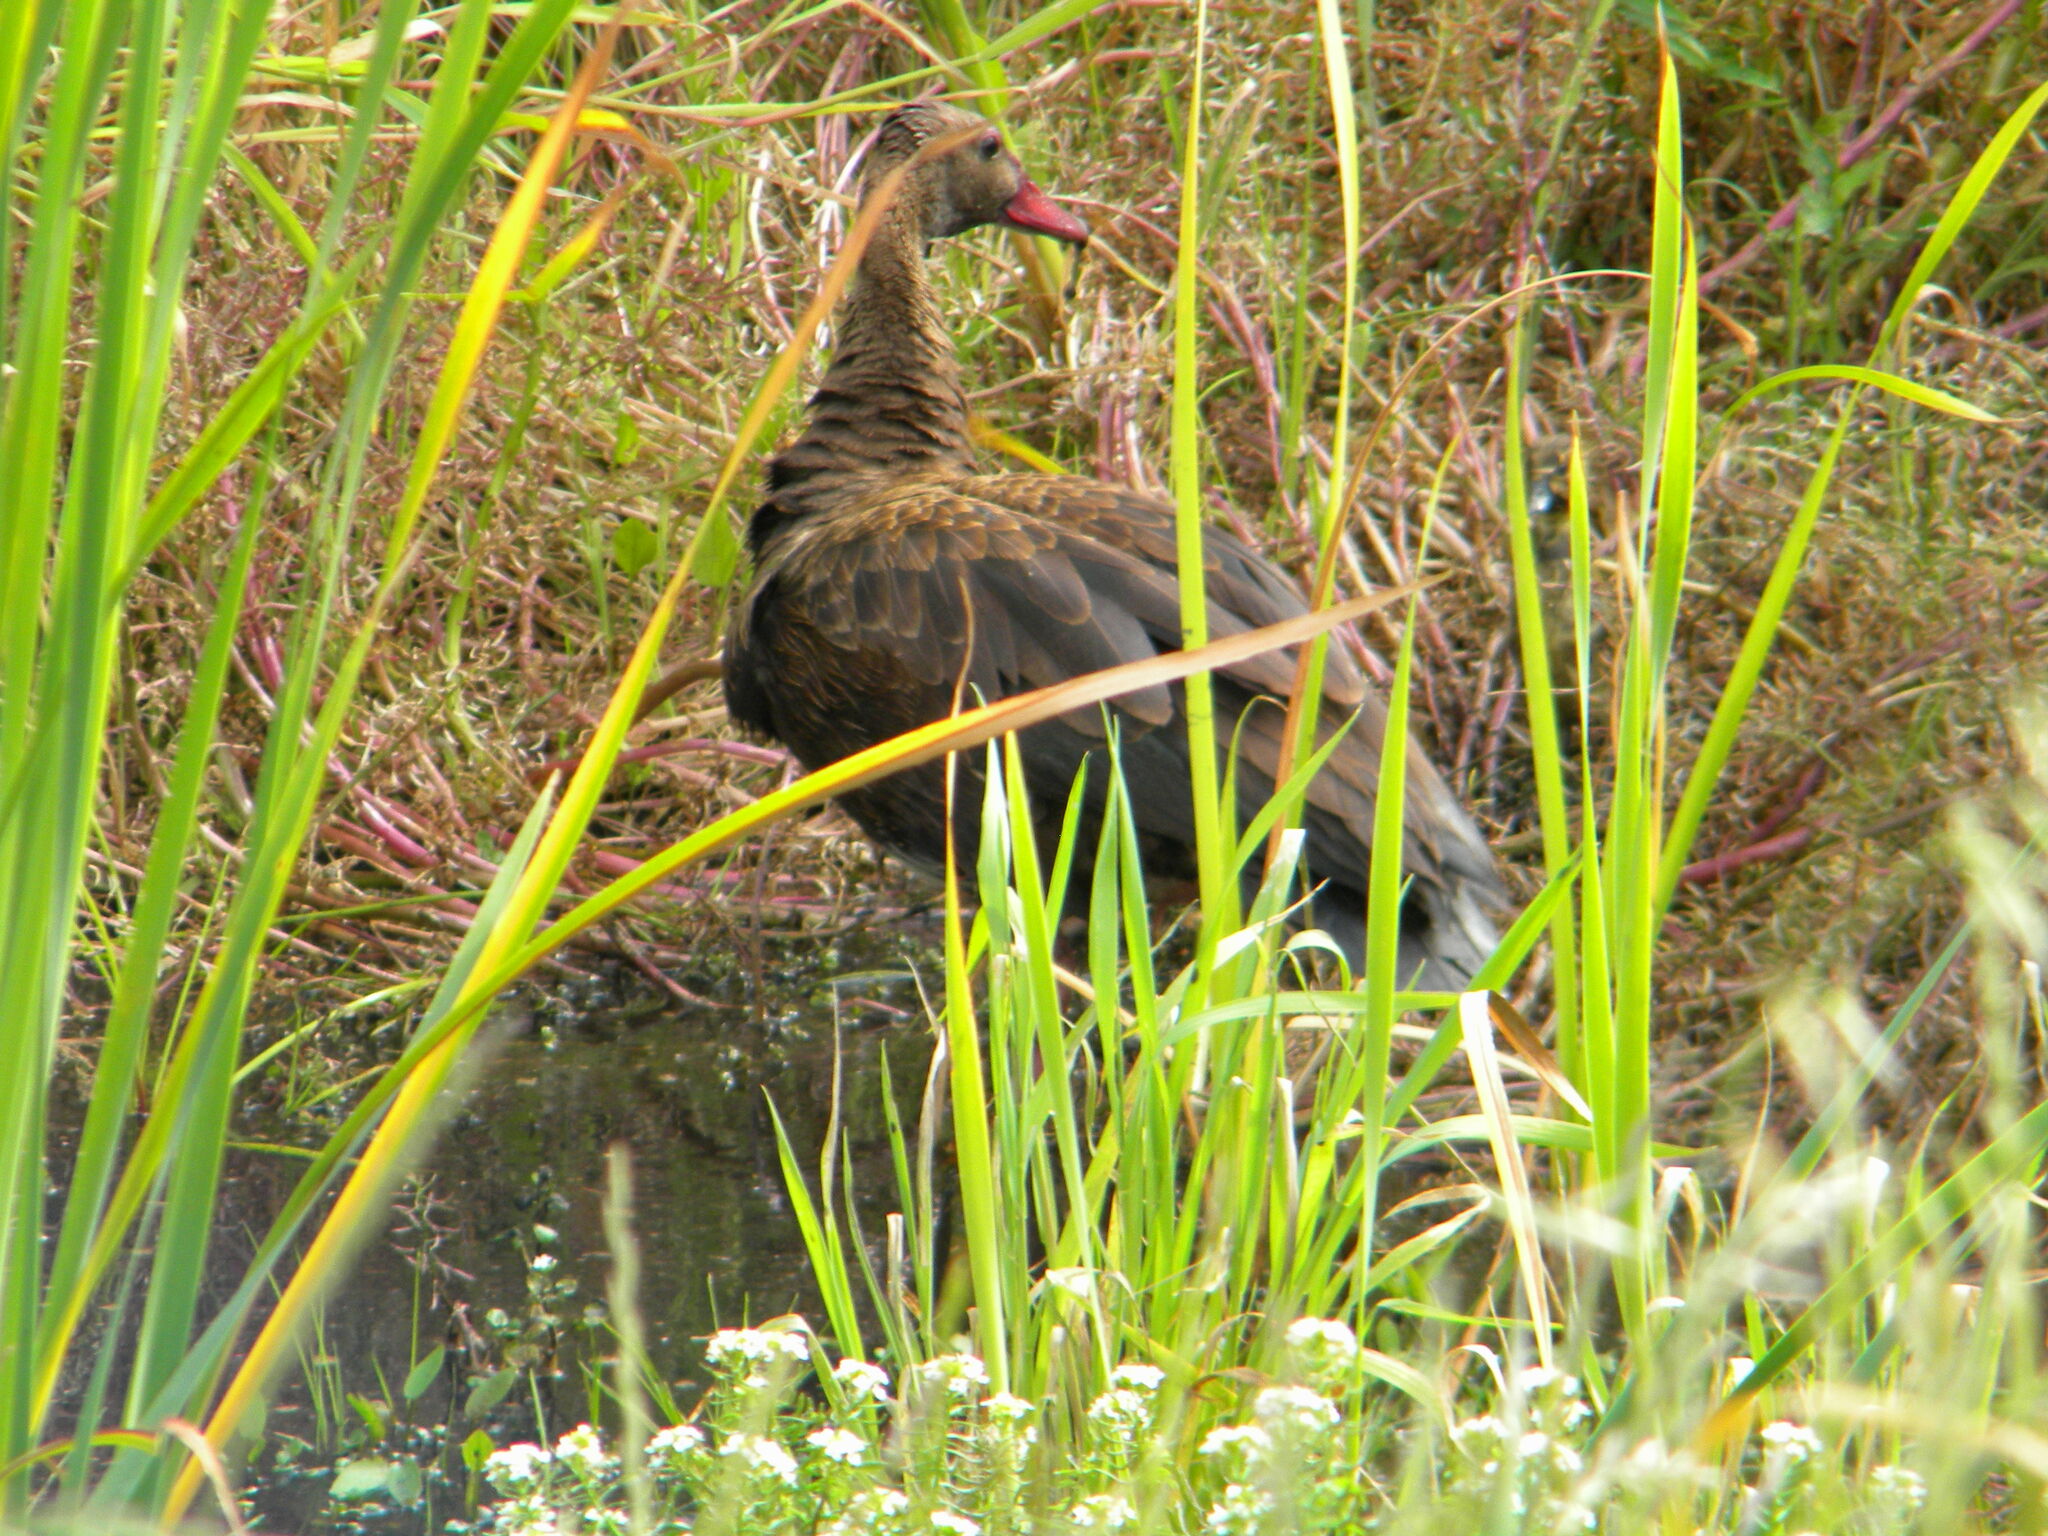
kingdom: Animalia
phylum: Chordata
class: Aves
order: Anseriformes
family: Anatidae
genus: Plectropterus
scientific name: Plectropterus gambensis
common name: Spur-winged goose
